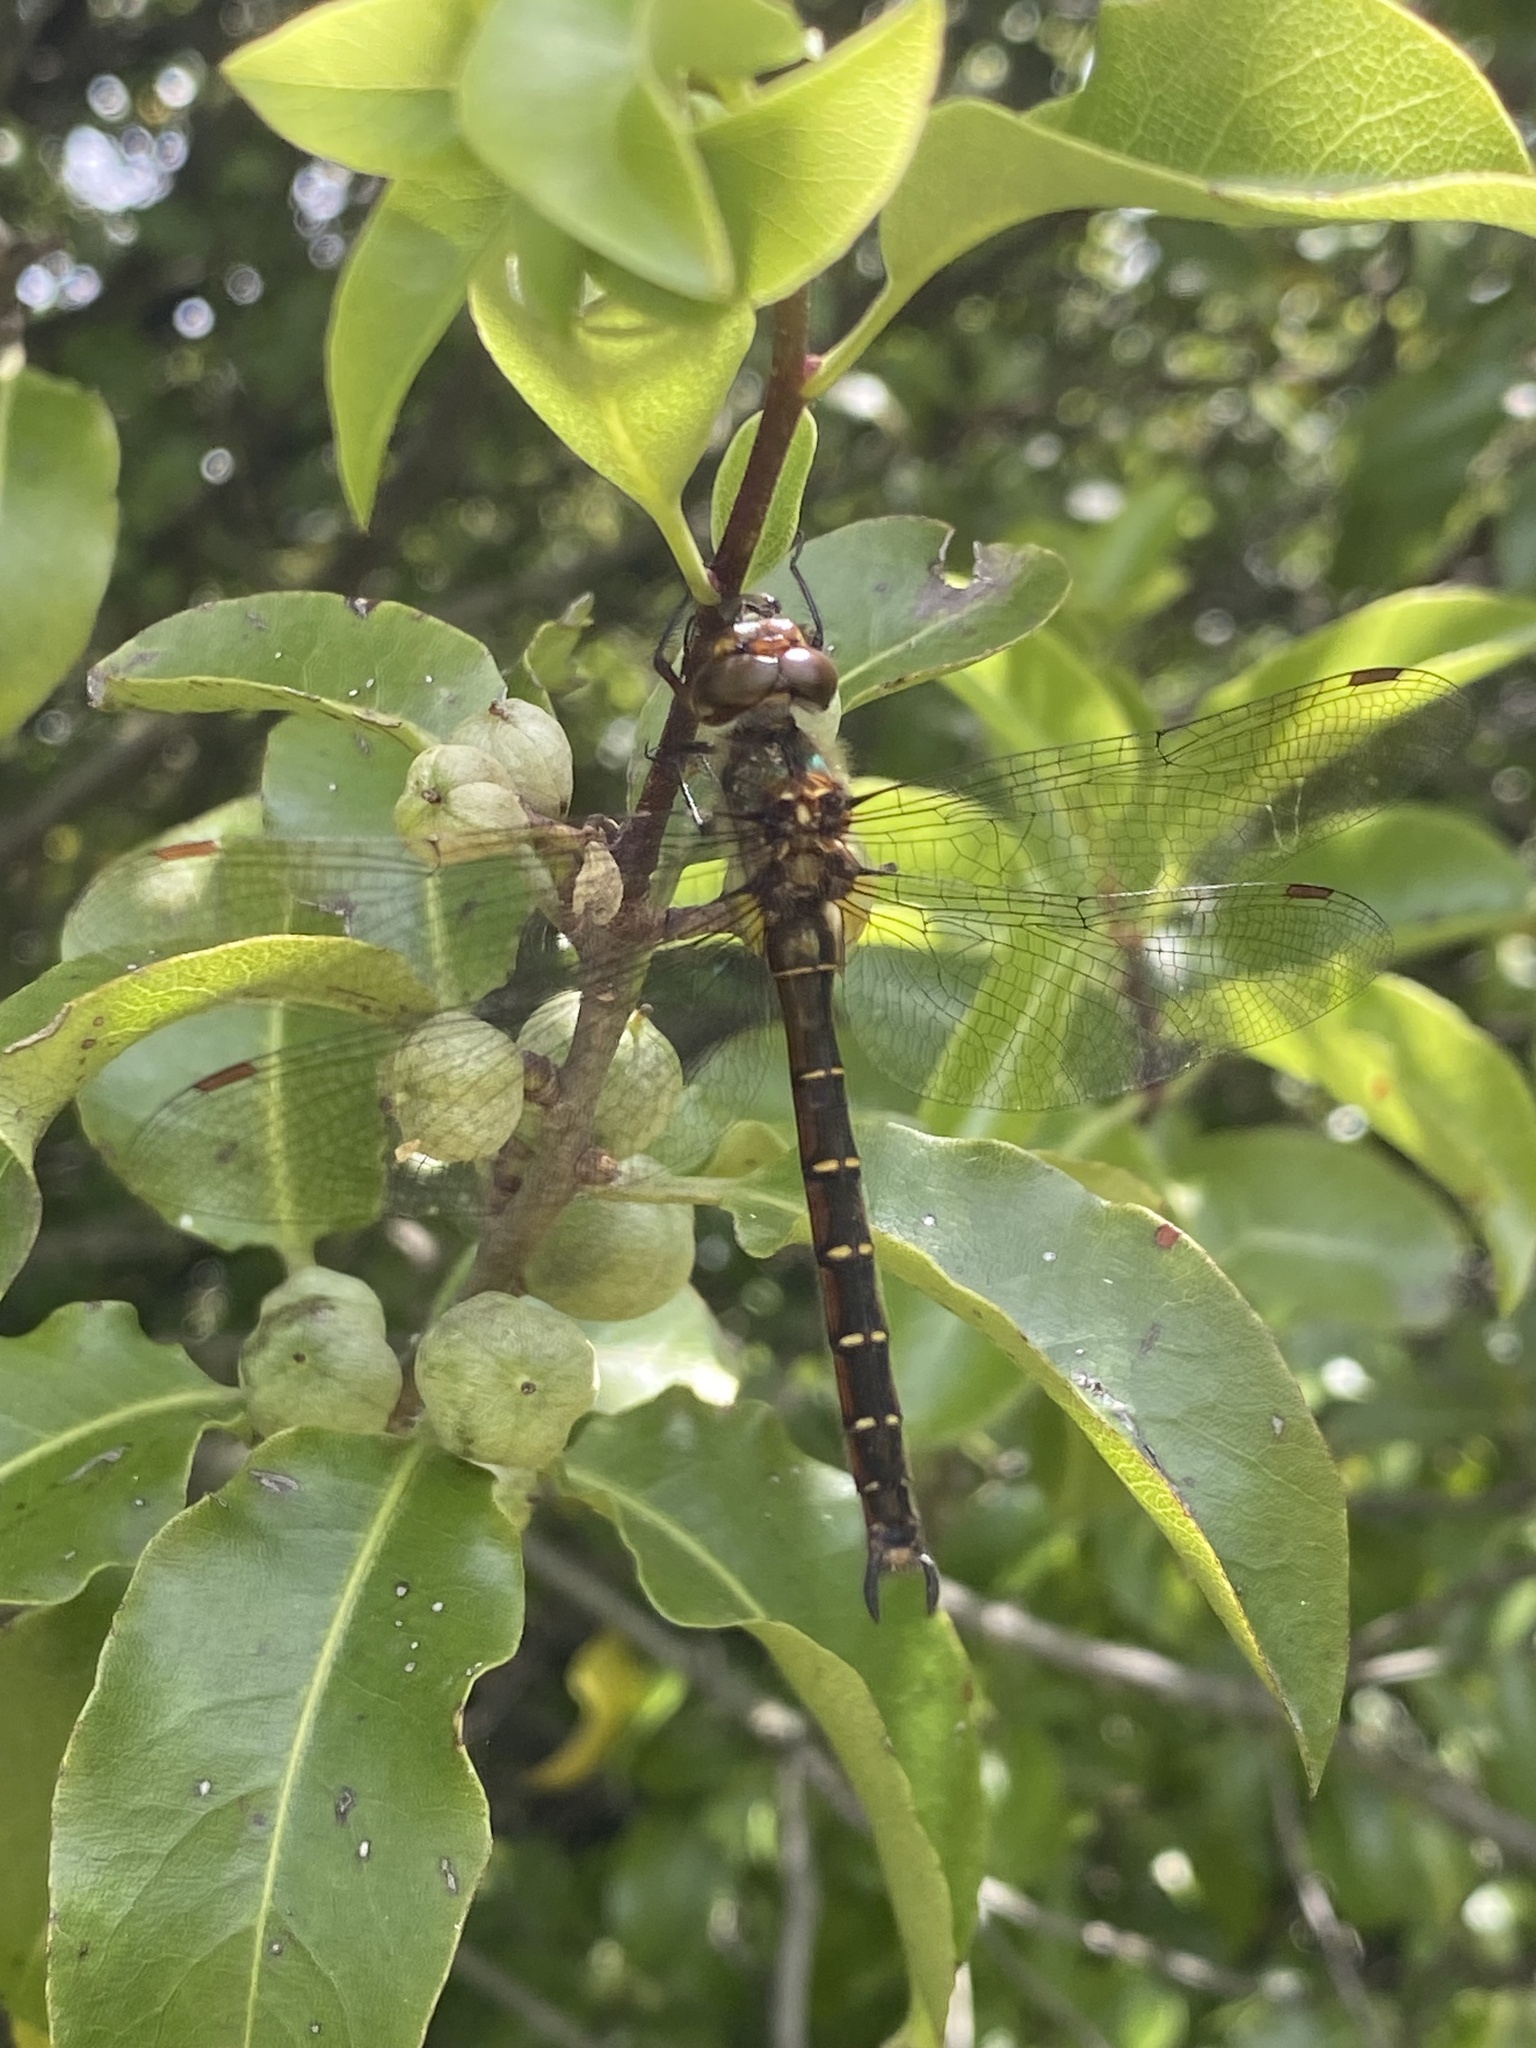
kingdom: Animalia
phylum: Arthropoda
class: Insecta
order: Odonata
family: Corduliidae
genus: Procordulia
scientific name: Procordulia smithii
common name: Ranger dragonfly
